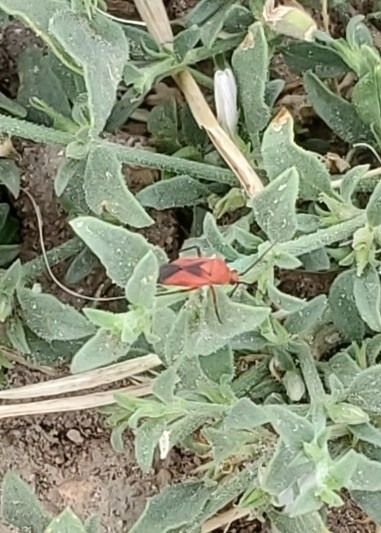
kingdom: Animalia
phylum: Arthropoda
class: Insecta
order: Hemiptera
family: Miridae
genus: Oncerometopus
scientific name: Oncerometopus nigriclavus
